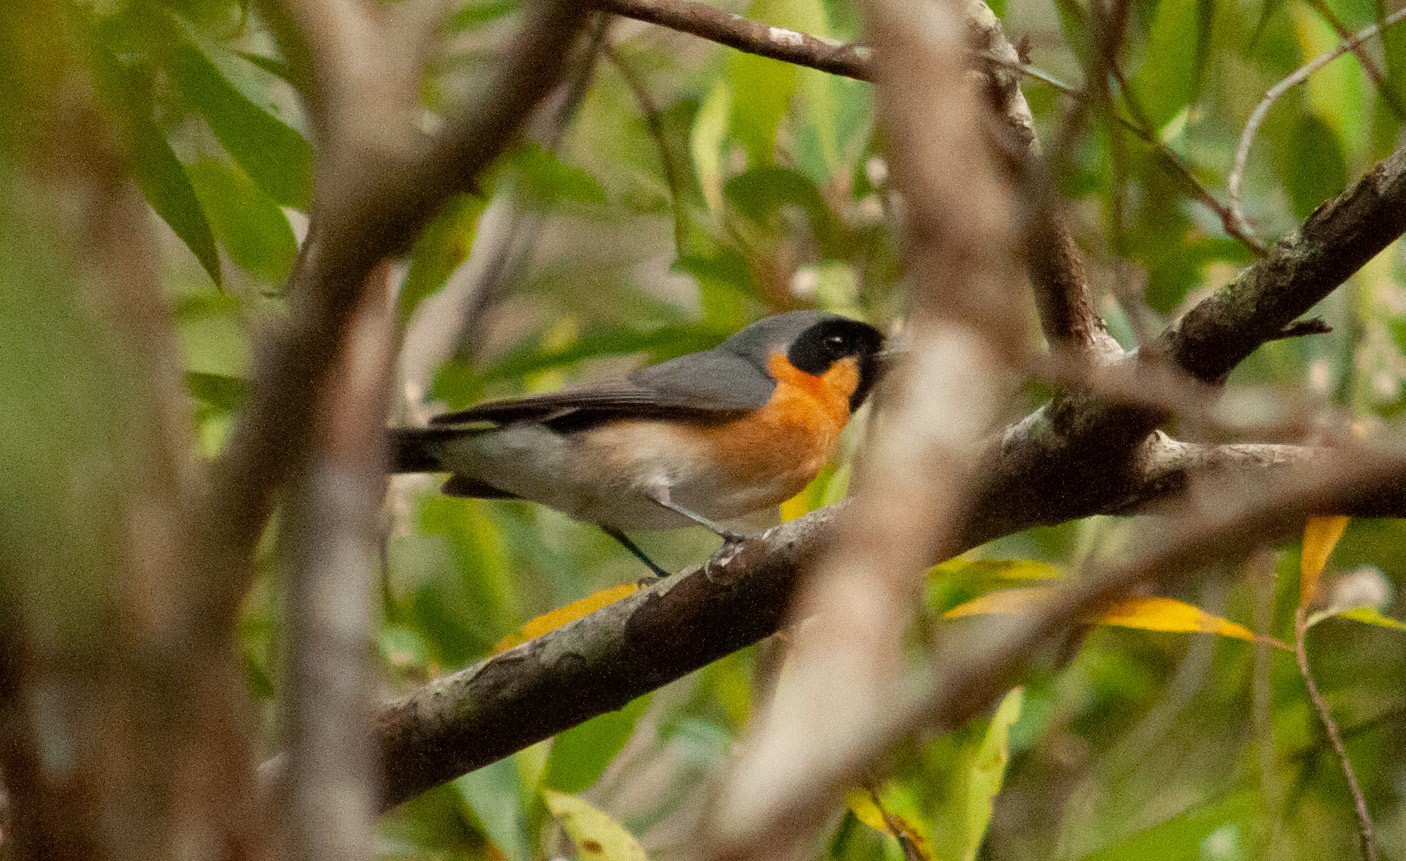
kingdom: Animalia
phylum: Chordata
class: Aves
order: Passeriformes
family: Monarchidae
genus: Symposiachrus
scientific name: Symposiachrus trivirgatus
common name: Spectacled monarch
